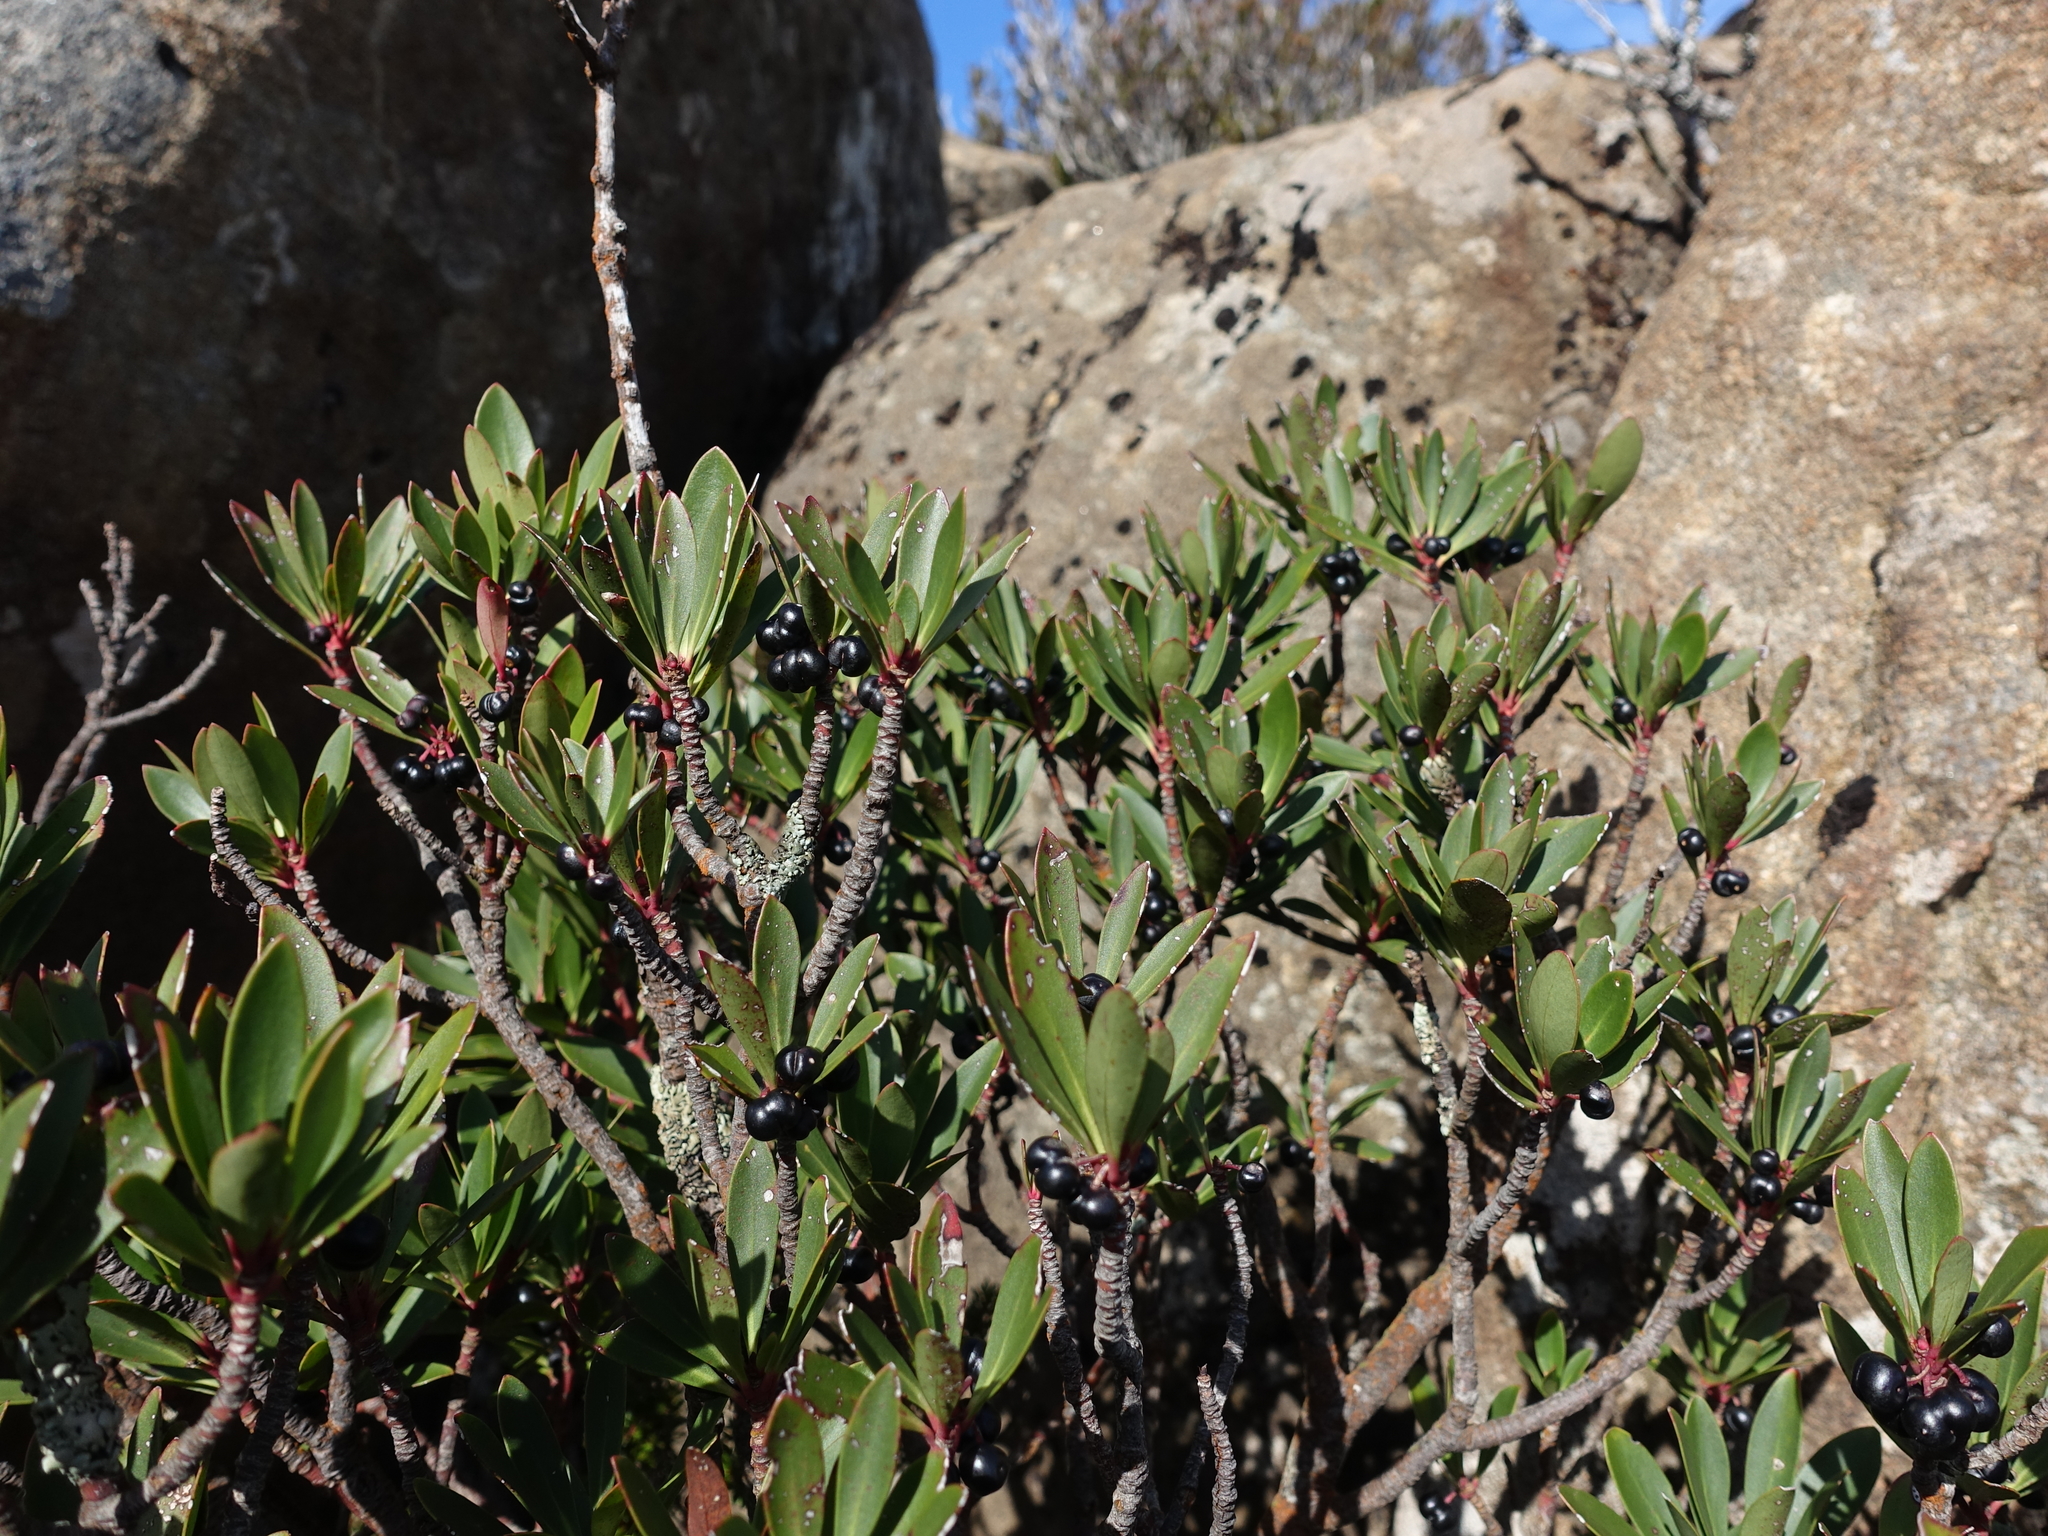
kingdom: Plantae
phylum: Tracheophyta
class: Magnoliopsida
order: Canellales
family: Winteraceae
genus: Drimys
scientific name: Drimys aromatica
